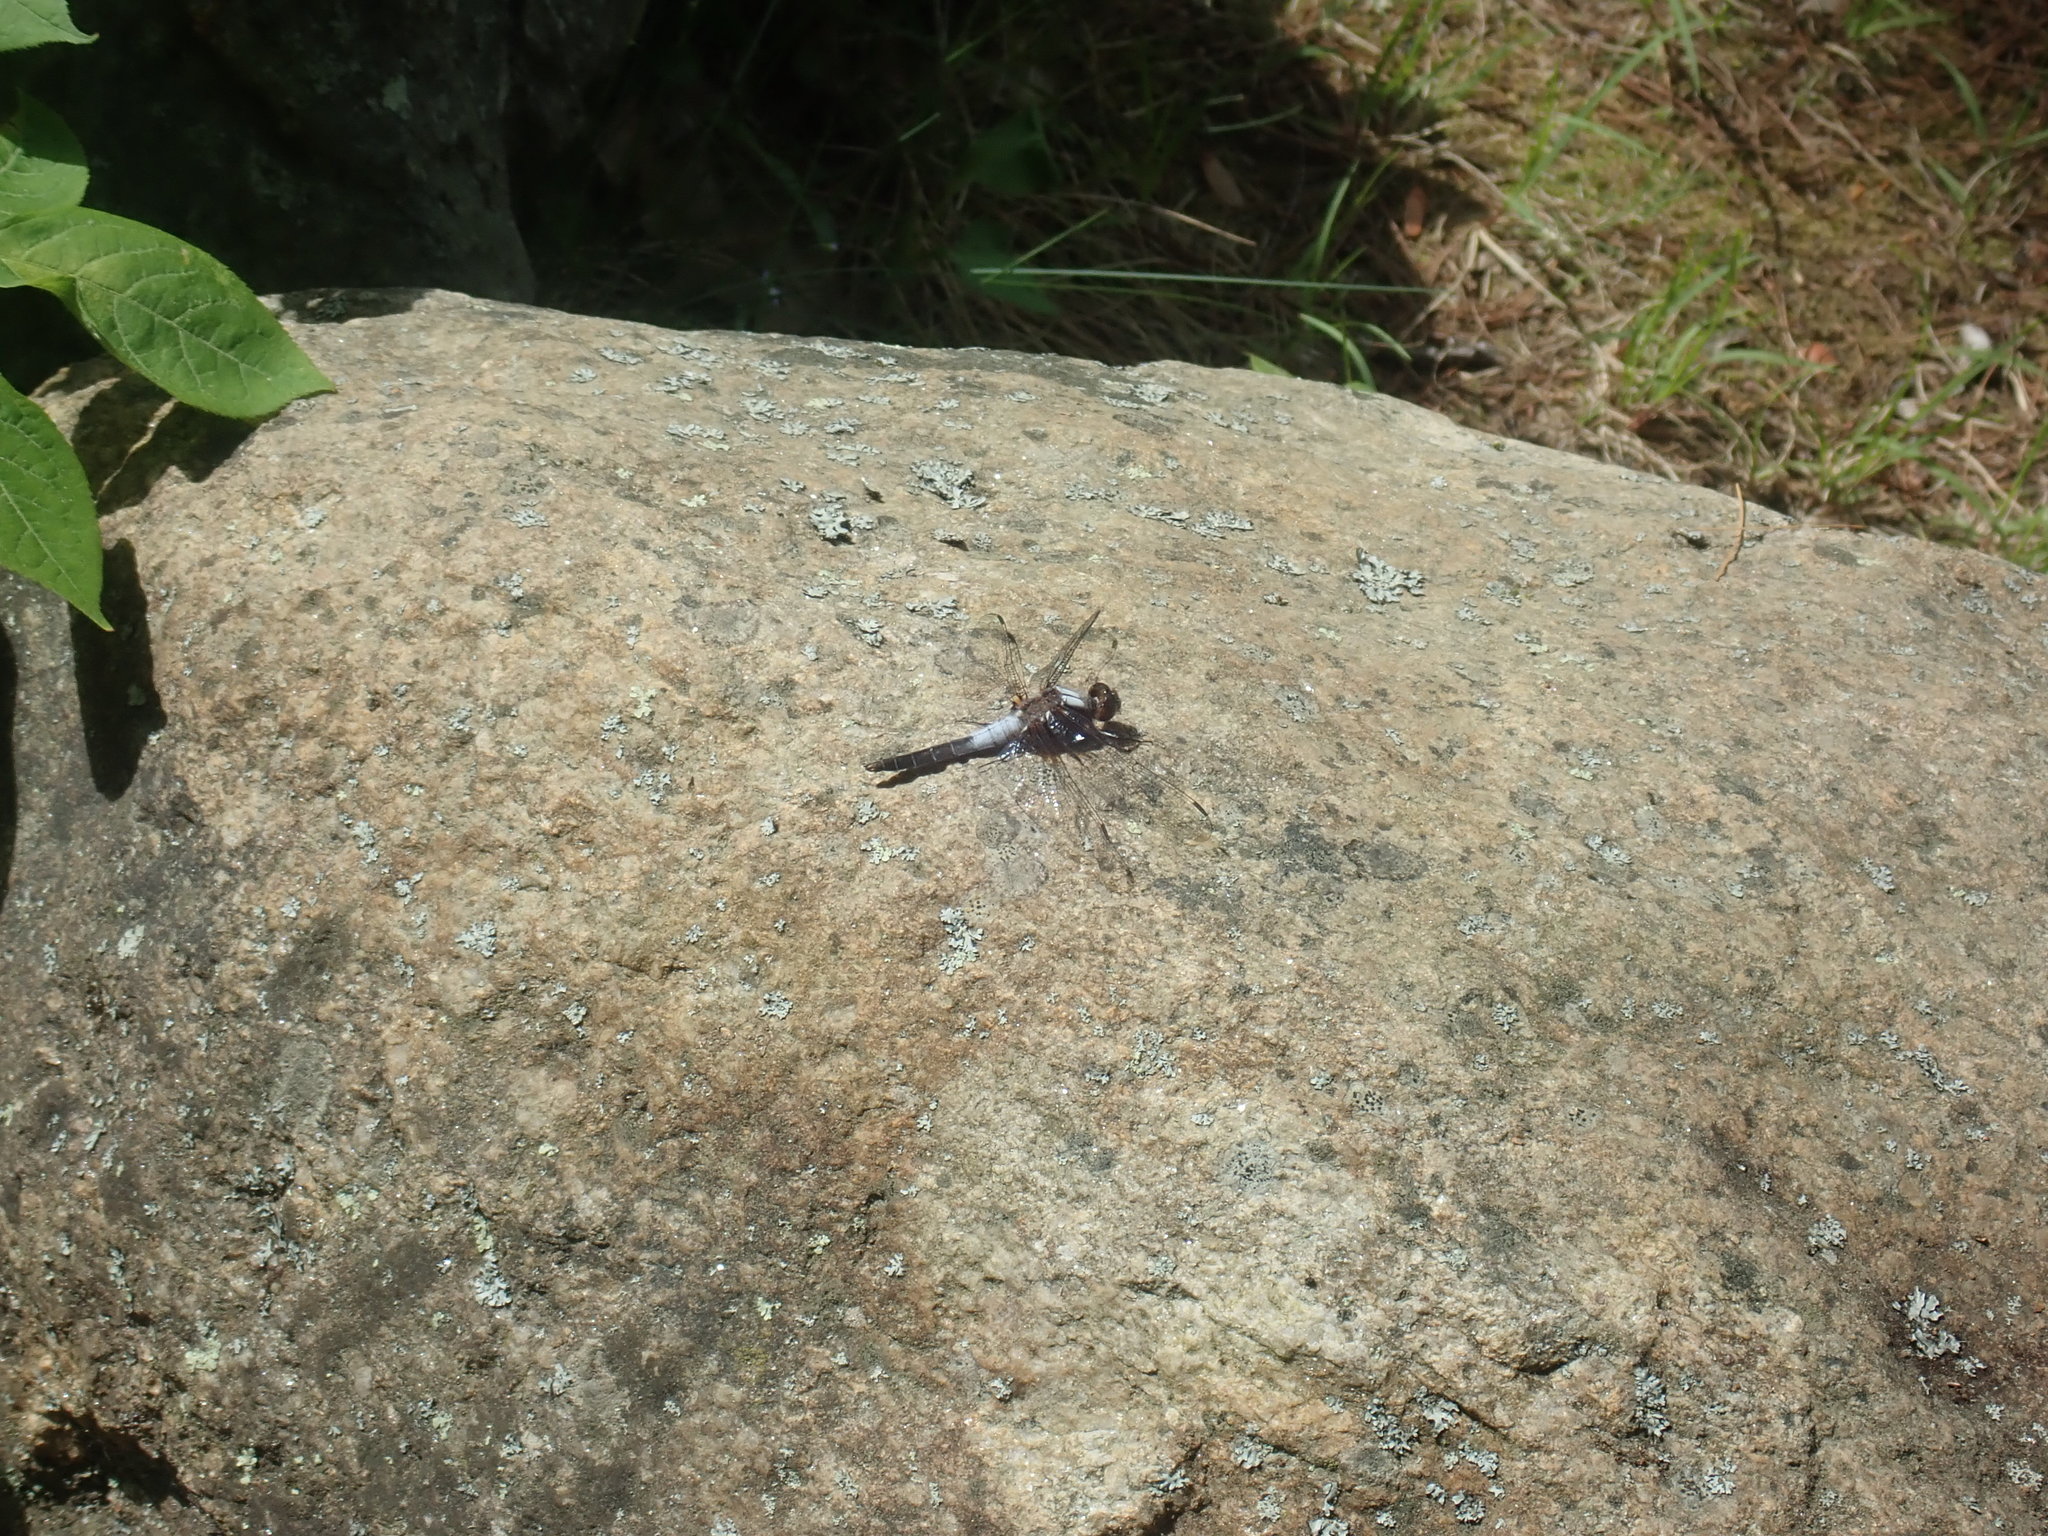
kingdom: Animalia
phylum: Arthropoda
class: Insecta
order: Odonata
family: Libellulidae
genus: Ladona
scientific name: Ladona julia
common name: Chalk-fronted corporal
